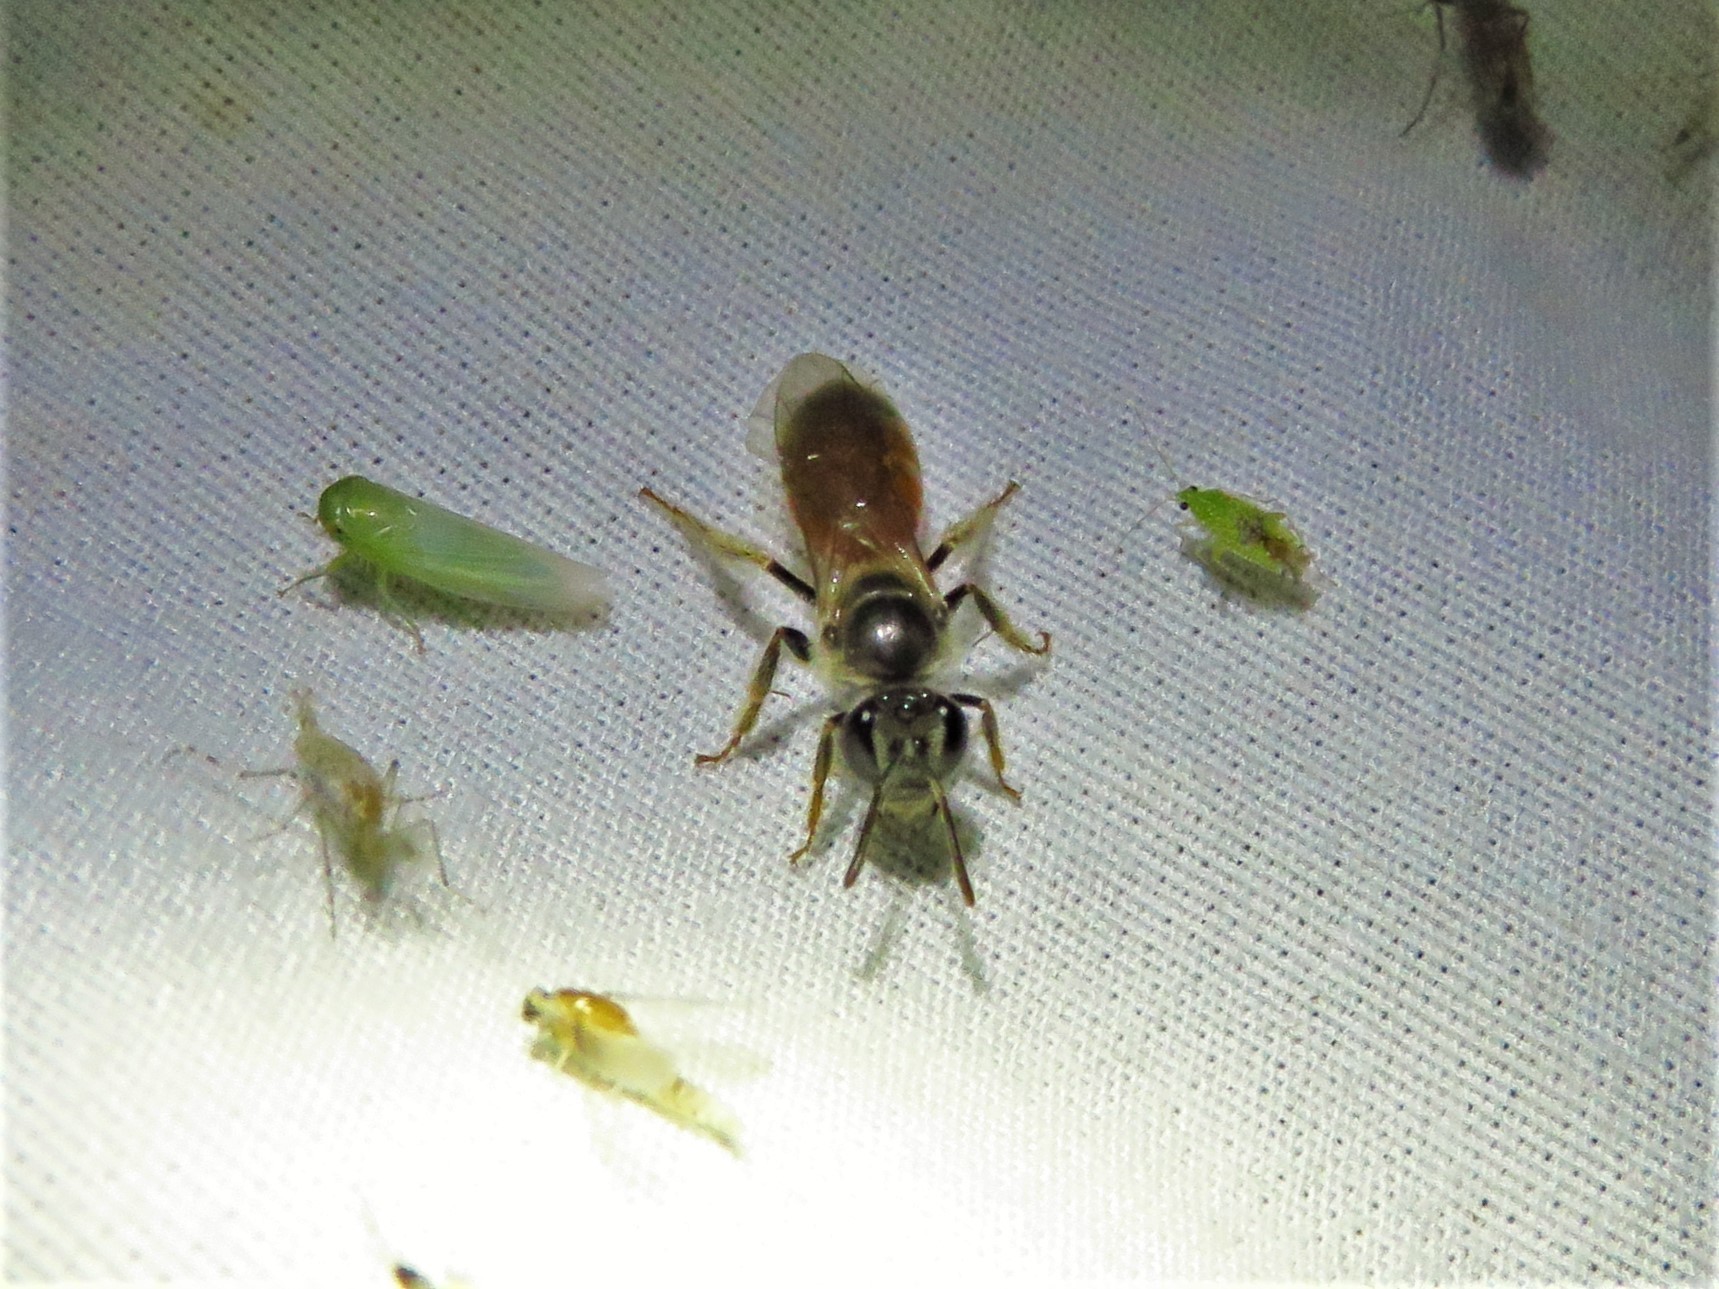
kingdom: Animalia
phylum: Arthropoda
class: Insecta
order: Hymenoptera
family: Halictidae
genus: Lasioglossum
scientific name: Lasioglossum texanum
